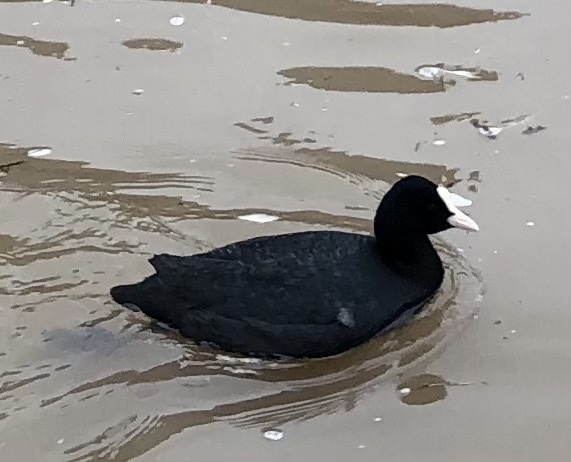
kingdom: Animalia
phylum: Chordata
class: Aves
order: Gruiformes
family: Rallidae
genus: Fulica
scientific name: Fulica atra
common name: Eurasian coot
